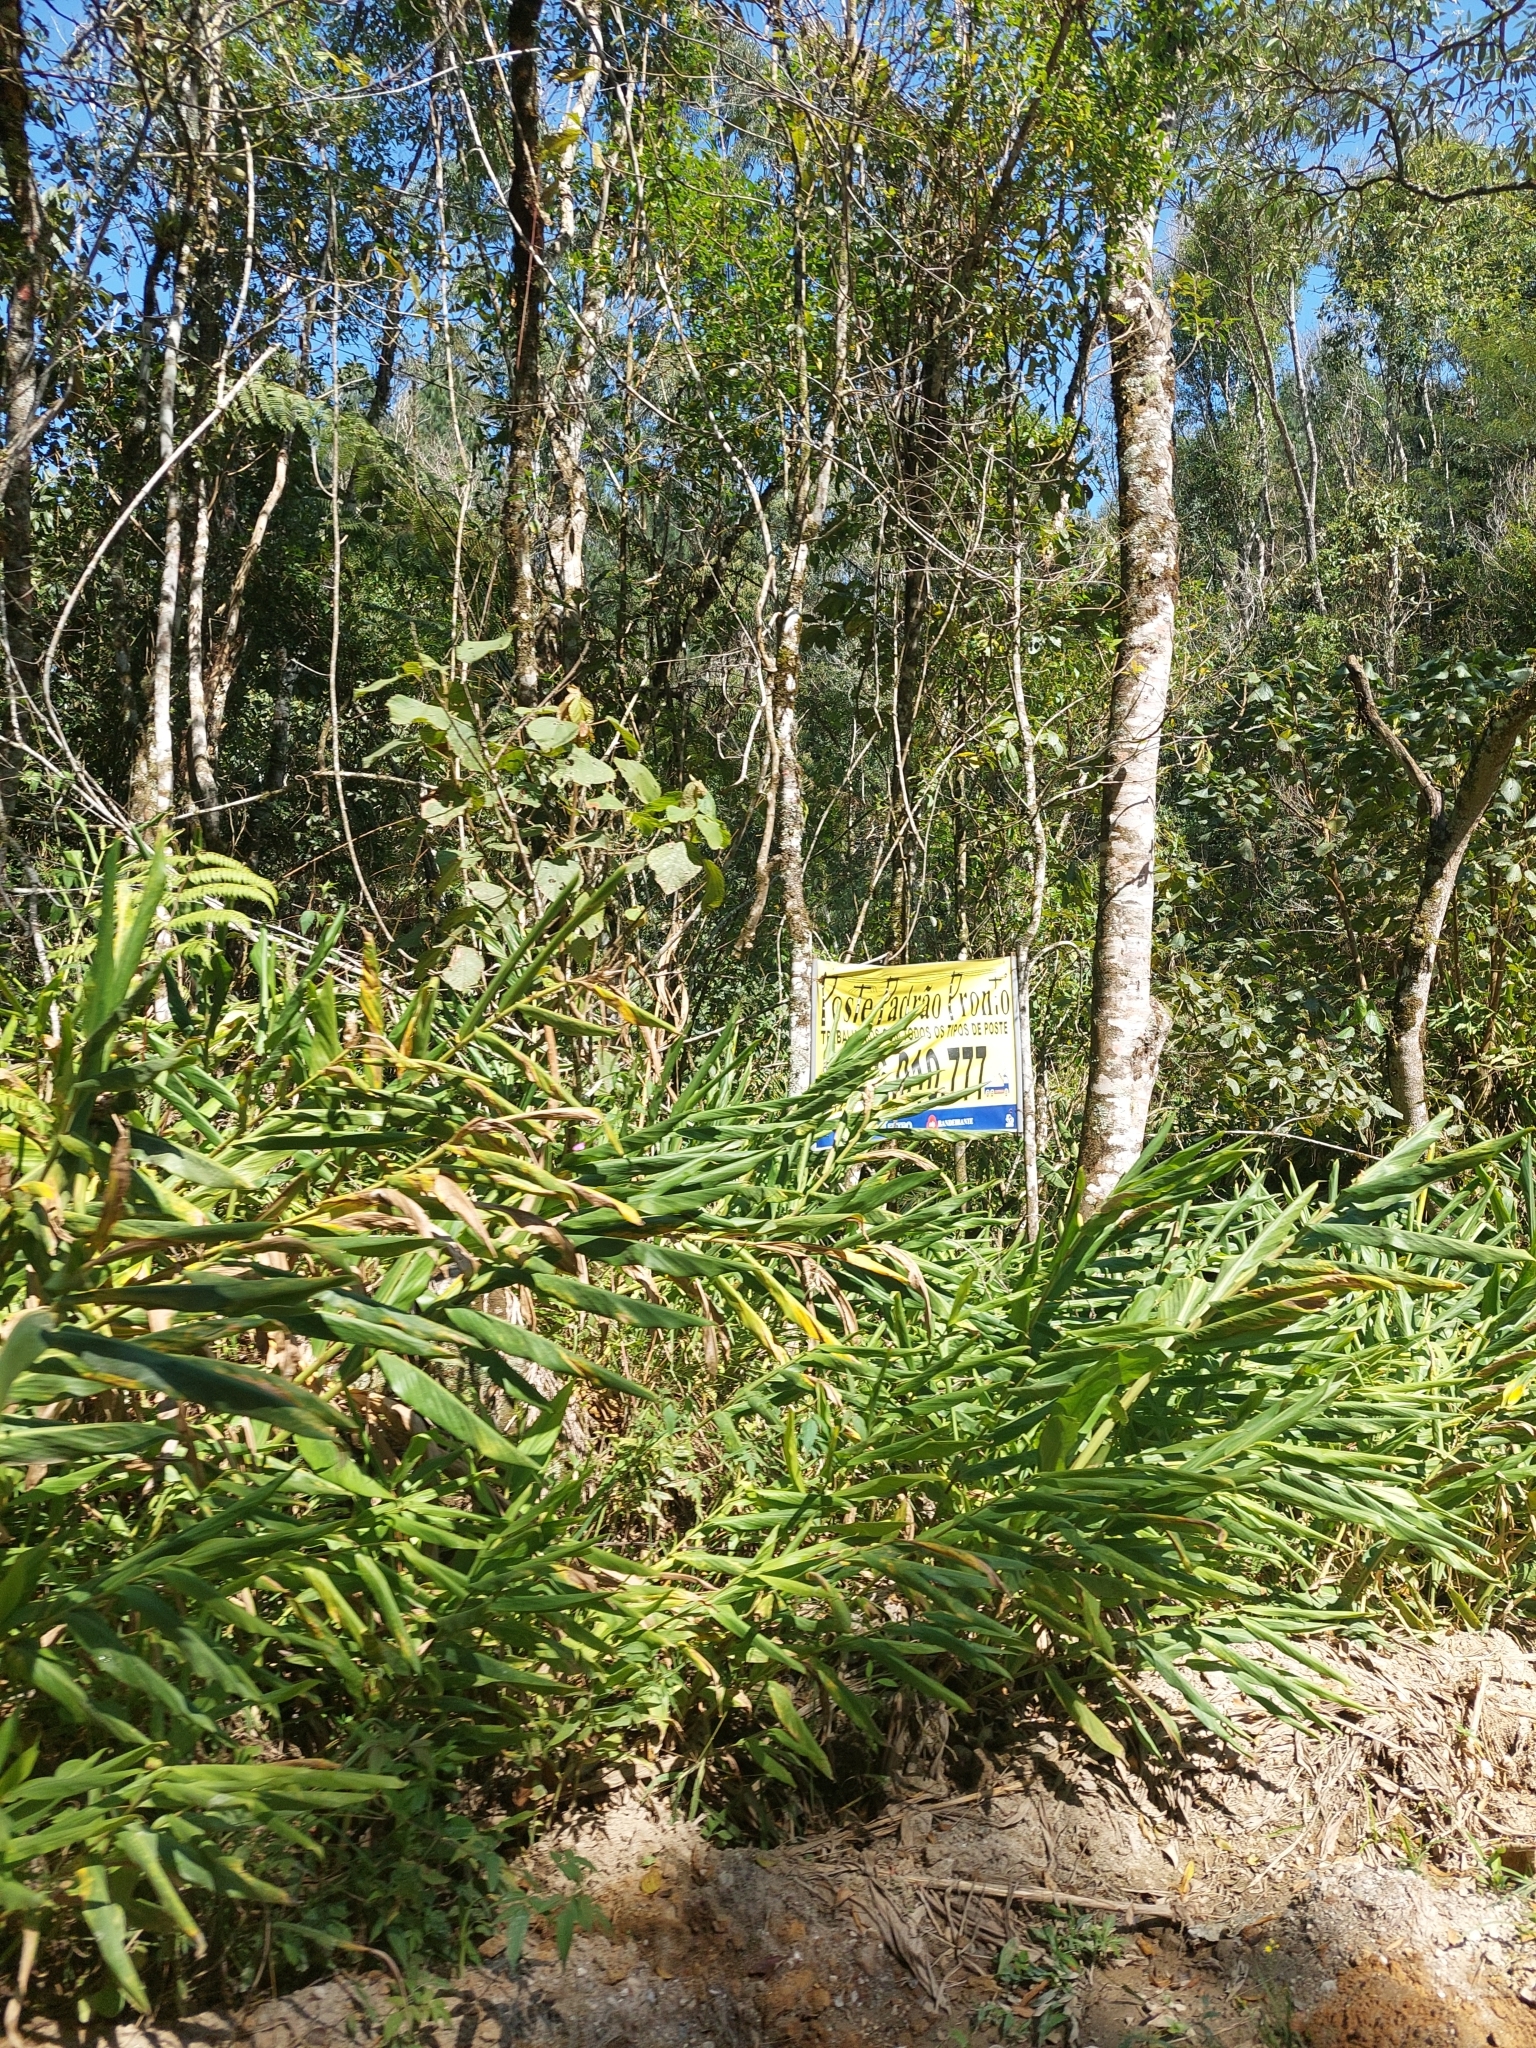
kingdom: Plantae
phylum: Tracheophyta
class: Liliopsida
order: Zingiberales
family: Zingiberaceae
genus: Hedychium
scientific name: Hedychium coronarium
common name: White garland-lily
